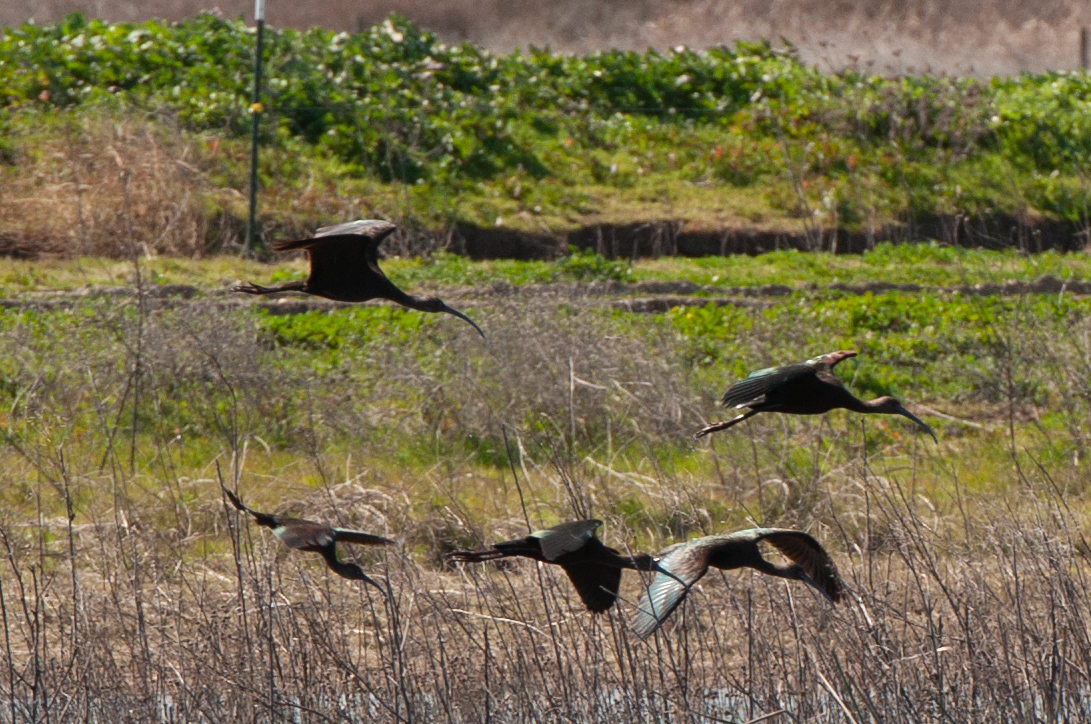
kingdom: Animalia
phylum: Chordata
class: Aves
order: Pelecaniformes
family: Threskiornithidae
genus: Plegadis
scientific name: Plegadis chihi
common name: White-faced ibis
